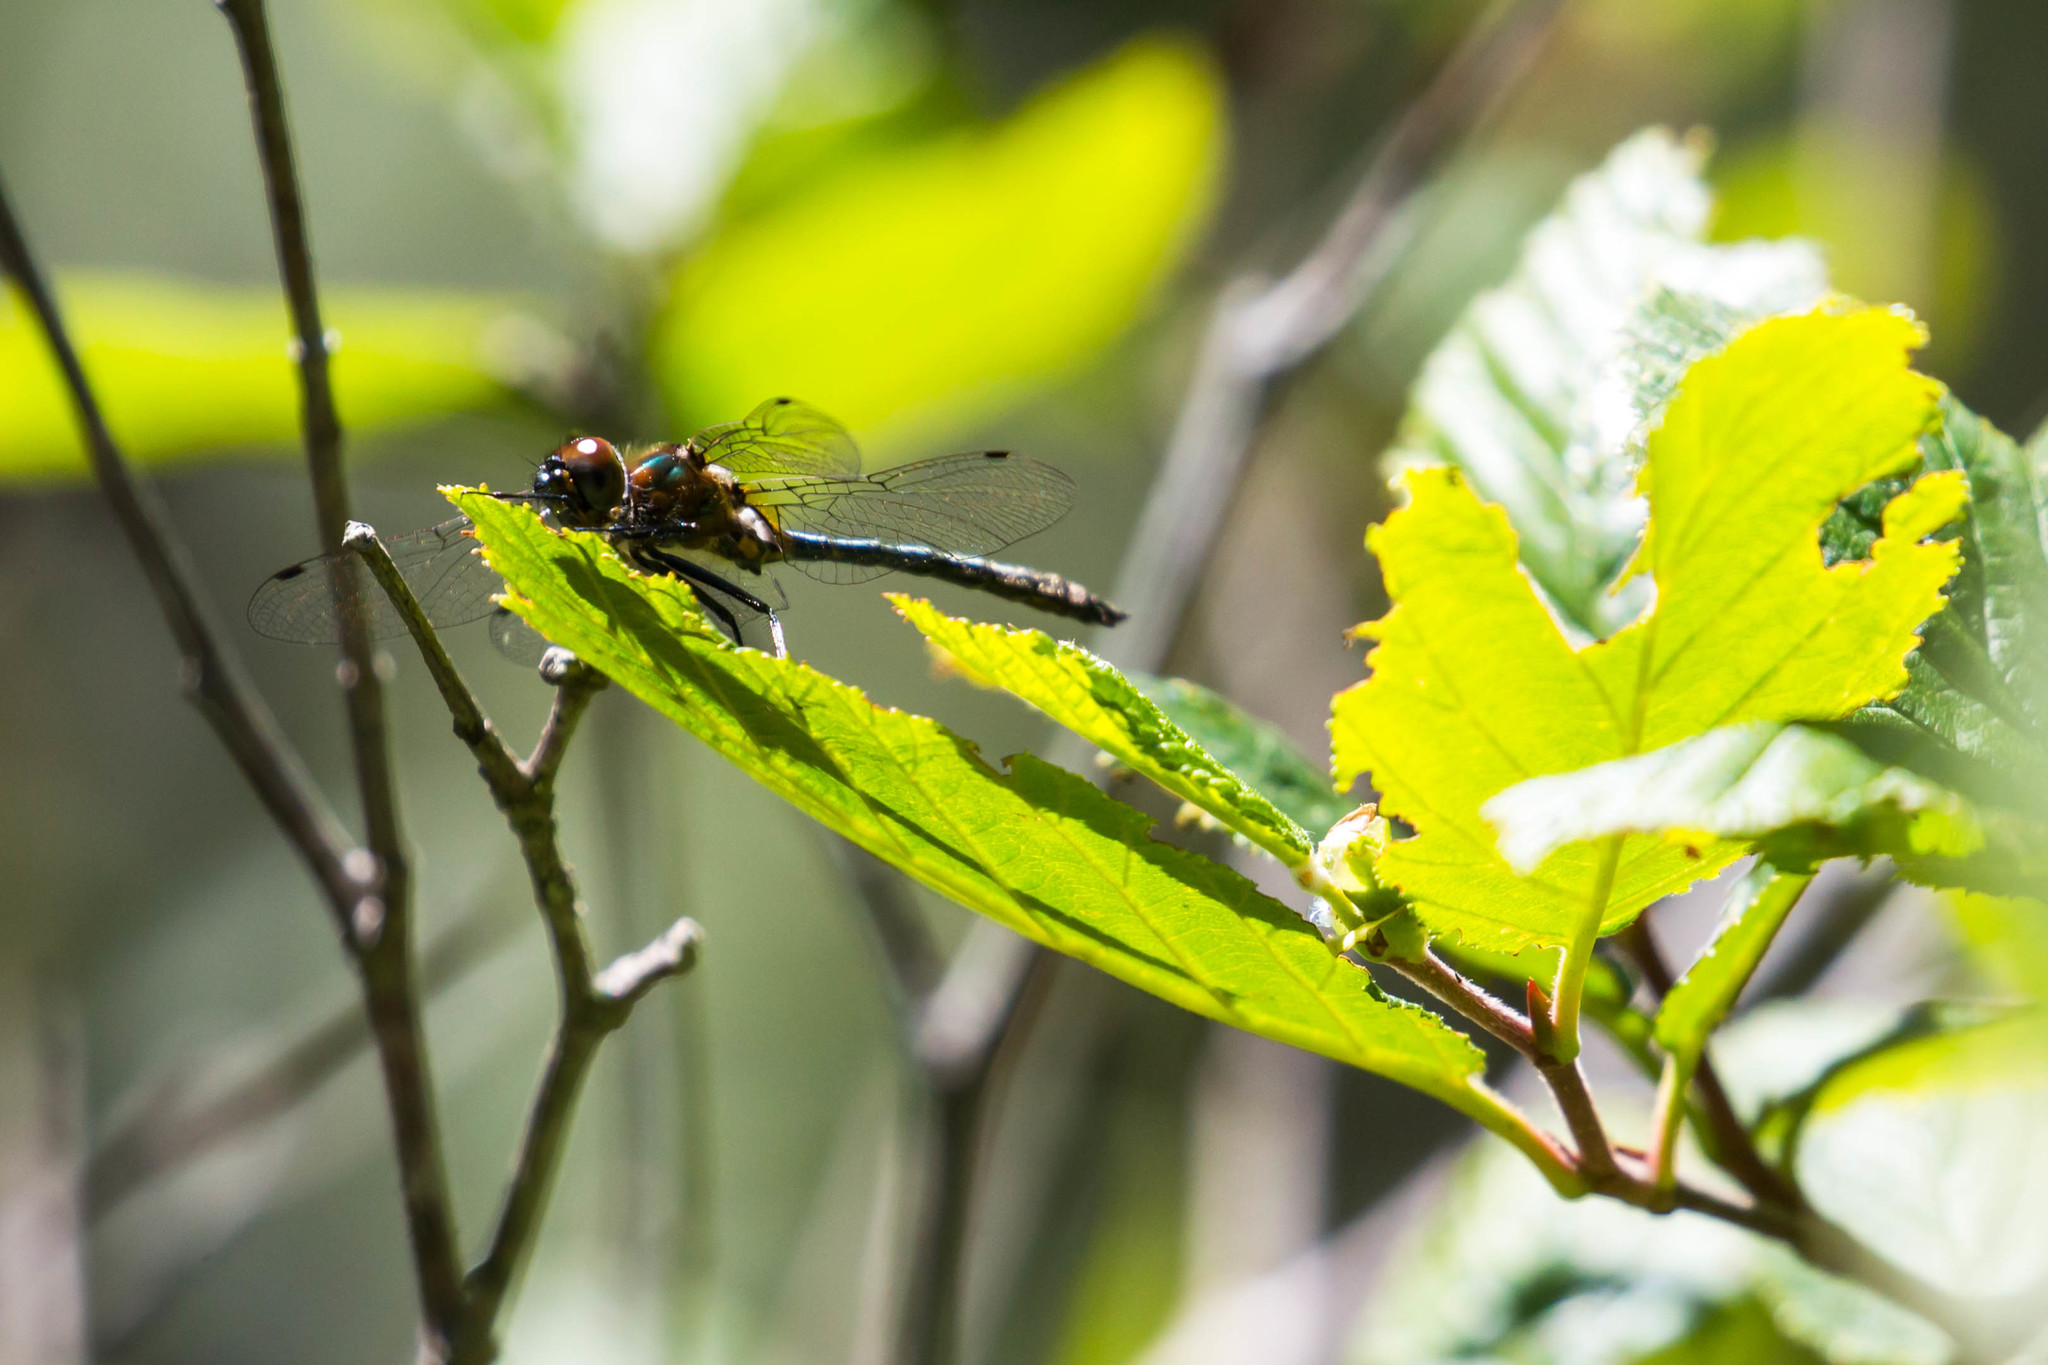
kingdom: Animalia
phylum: Arthropoda
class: Insecta
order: Odonata
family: Corduliidae
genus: Dorocordulia
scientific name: Dorocordulia lepida
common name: Petite emerald
